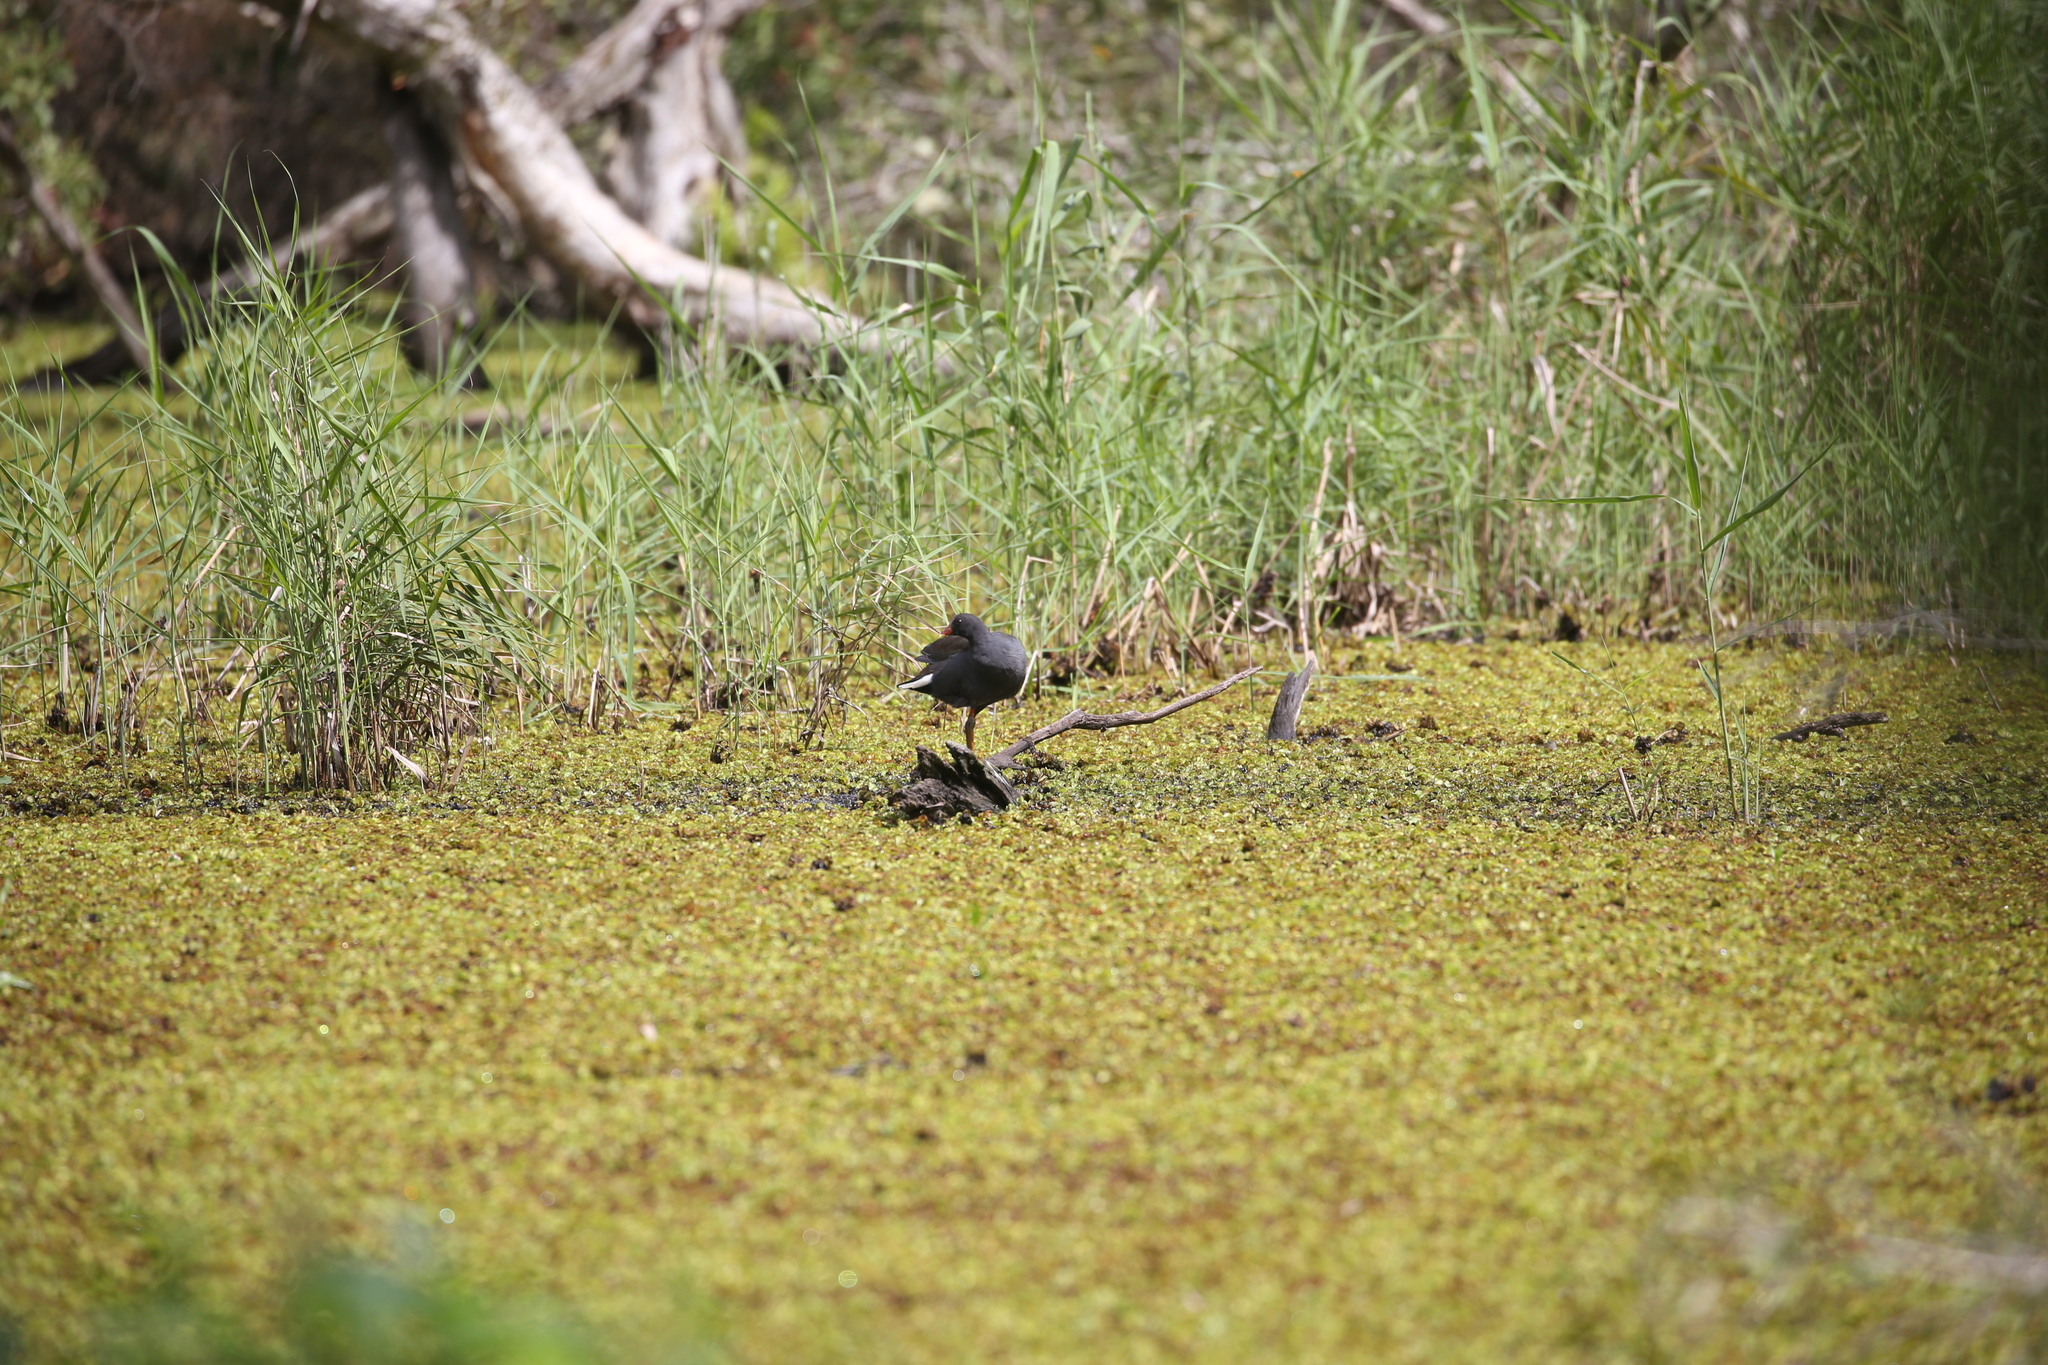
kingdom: Animalia
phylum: Chordata
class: Aves
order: Gruiformes
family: Rallidae
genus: Gallinula
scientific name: Gallinula tenebrosa
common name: Dusky moorhen
